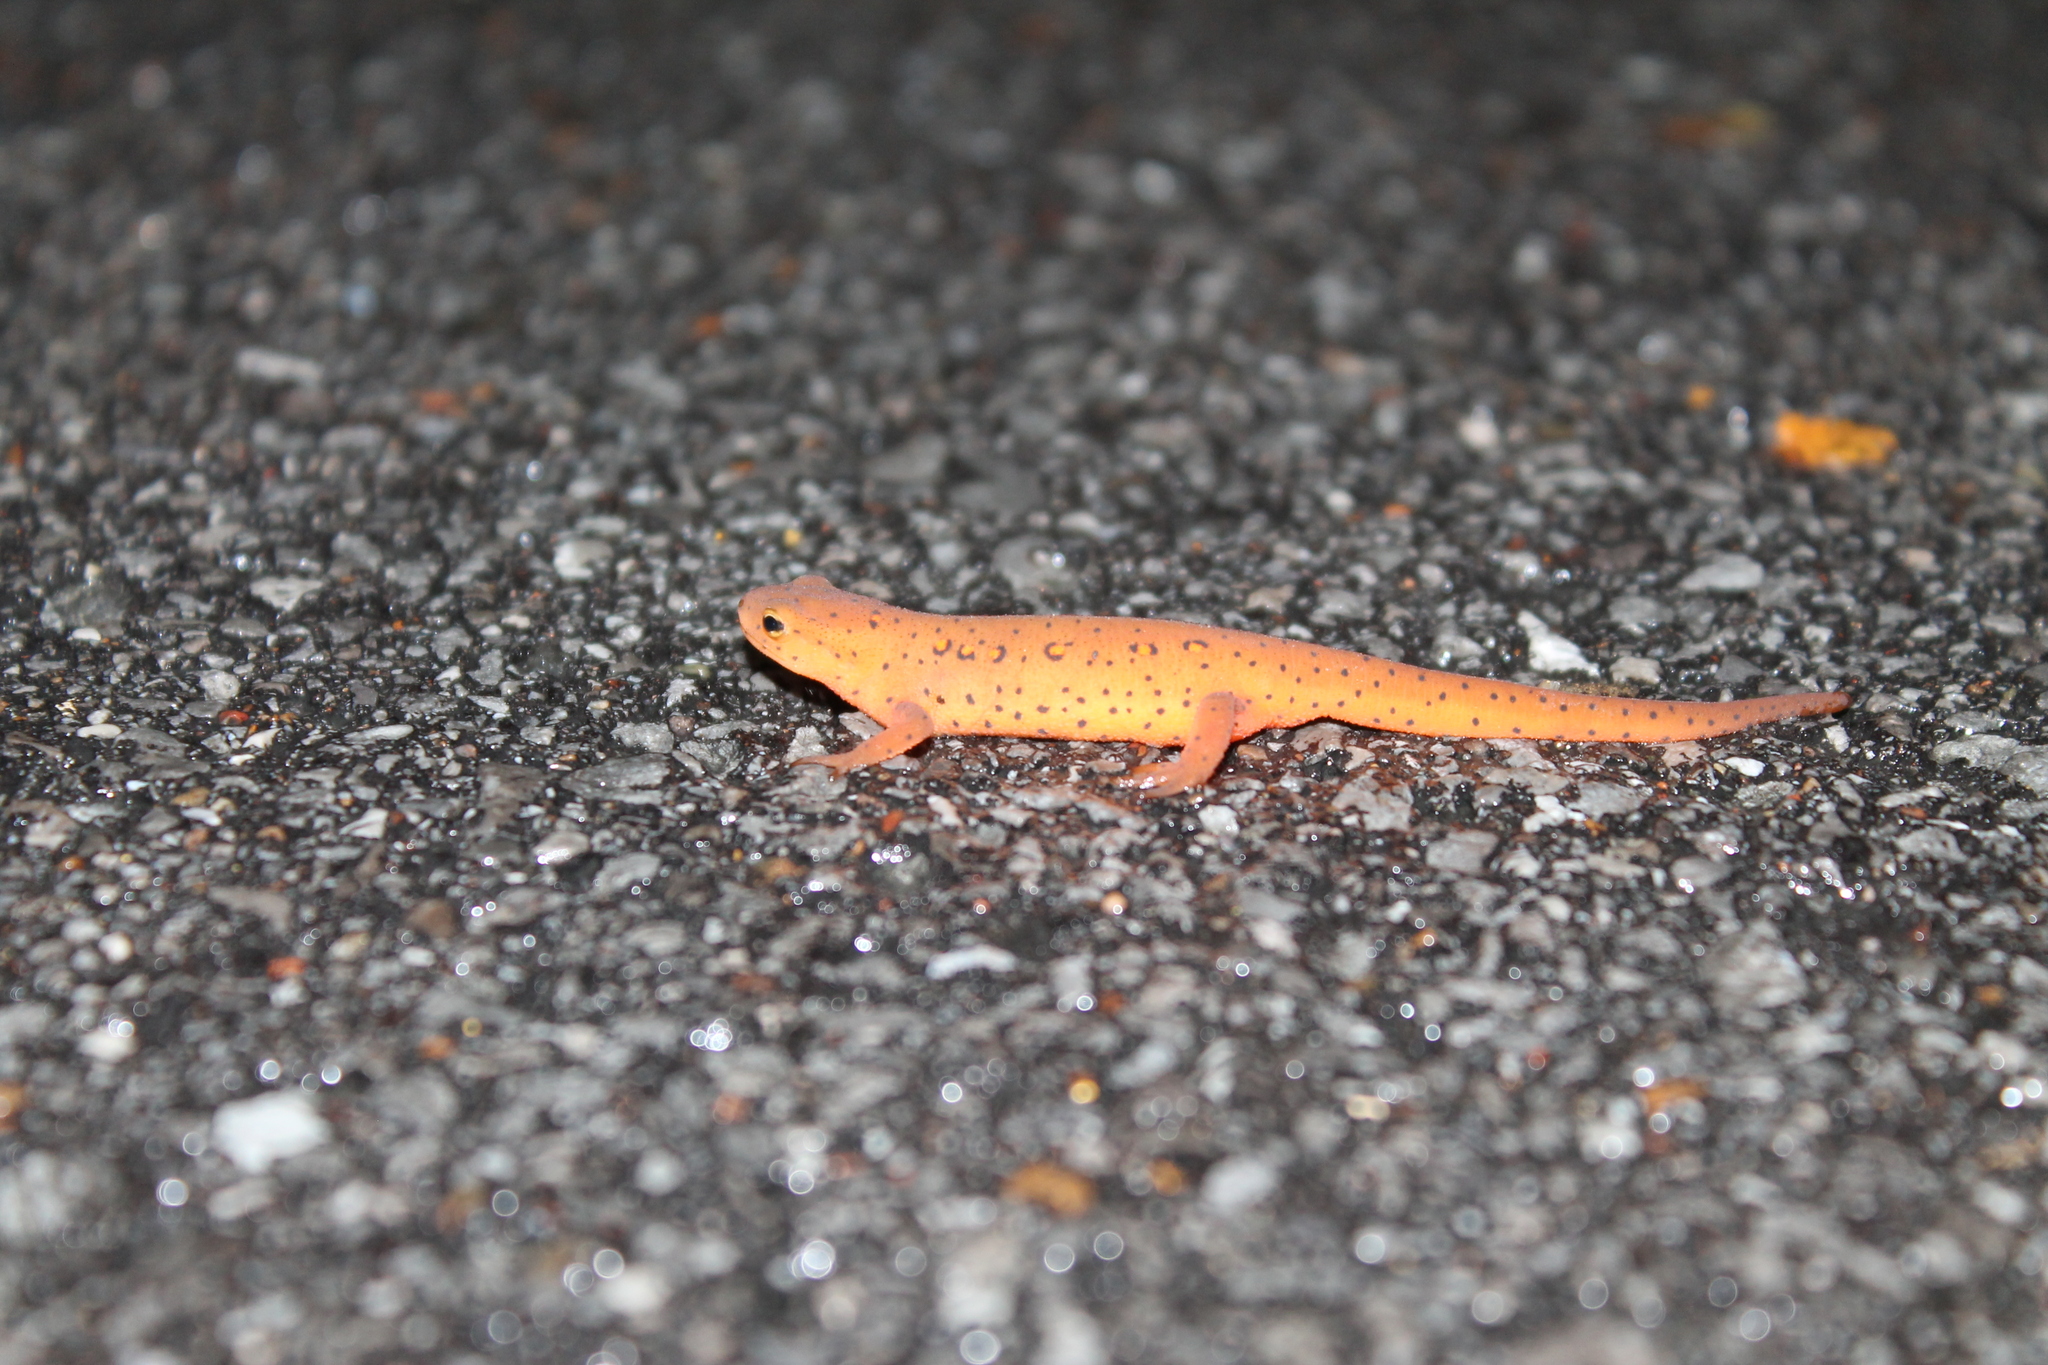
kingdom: Animalia
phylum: Chordata
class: Amphibia
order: Caudata
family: Salamandridae
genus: Notophthalmus
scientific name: Notophthalmus viridescens
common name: Eastern newt
